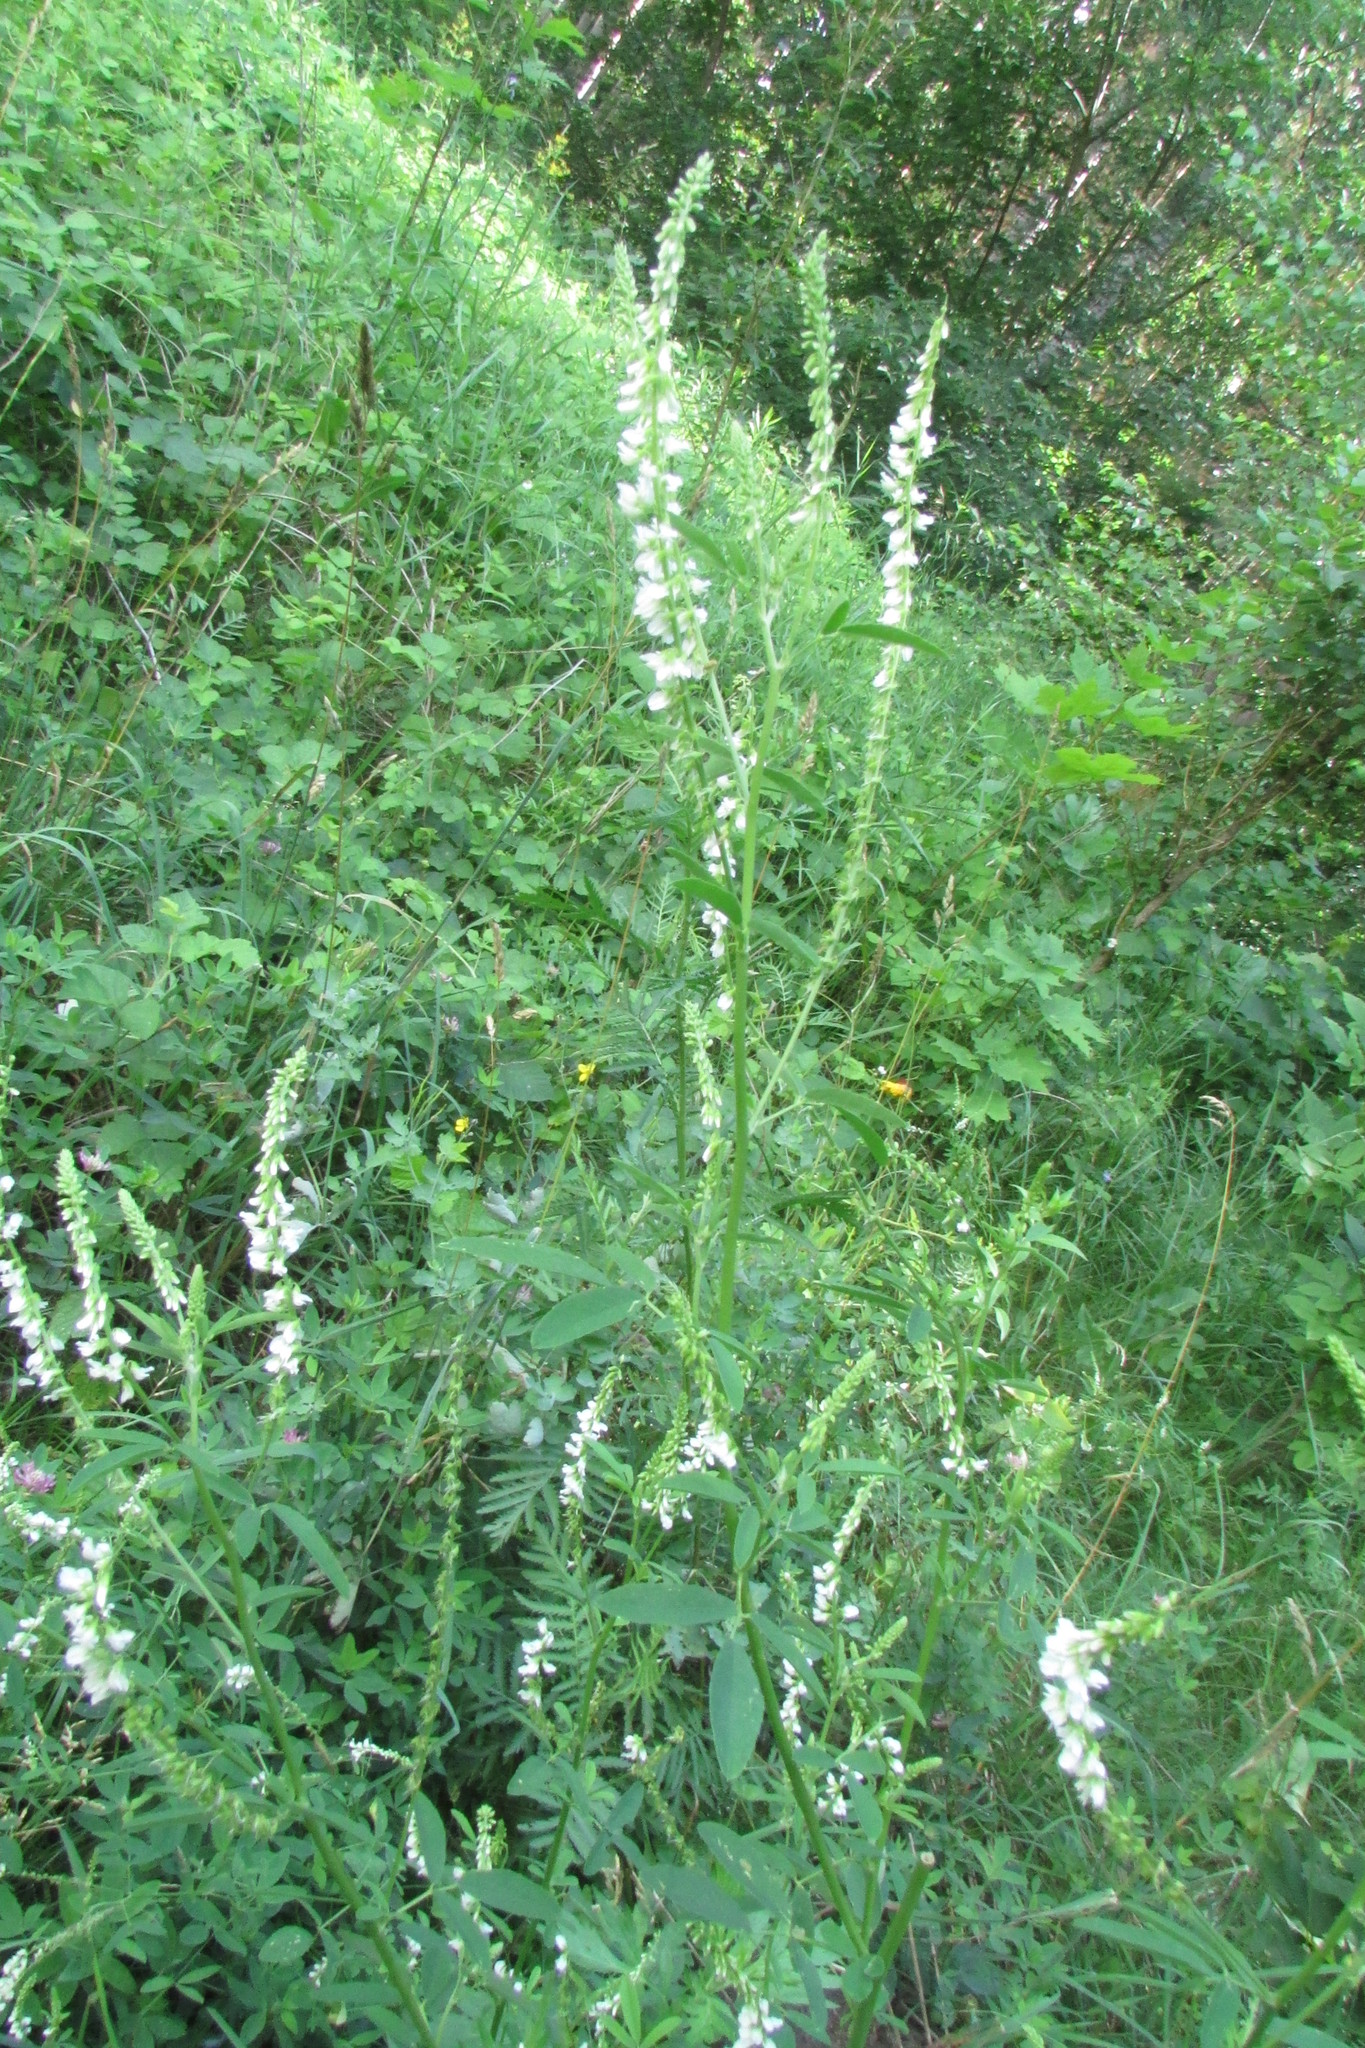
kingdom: Plantae
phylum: Tracheophyta
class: Magnoliopsida
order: Fabales
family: Fabaceae
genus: Melilotus
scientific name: Melilotus albus
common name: White melilot
